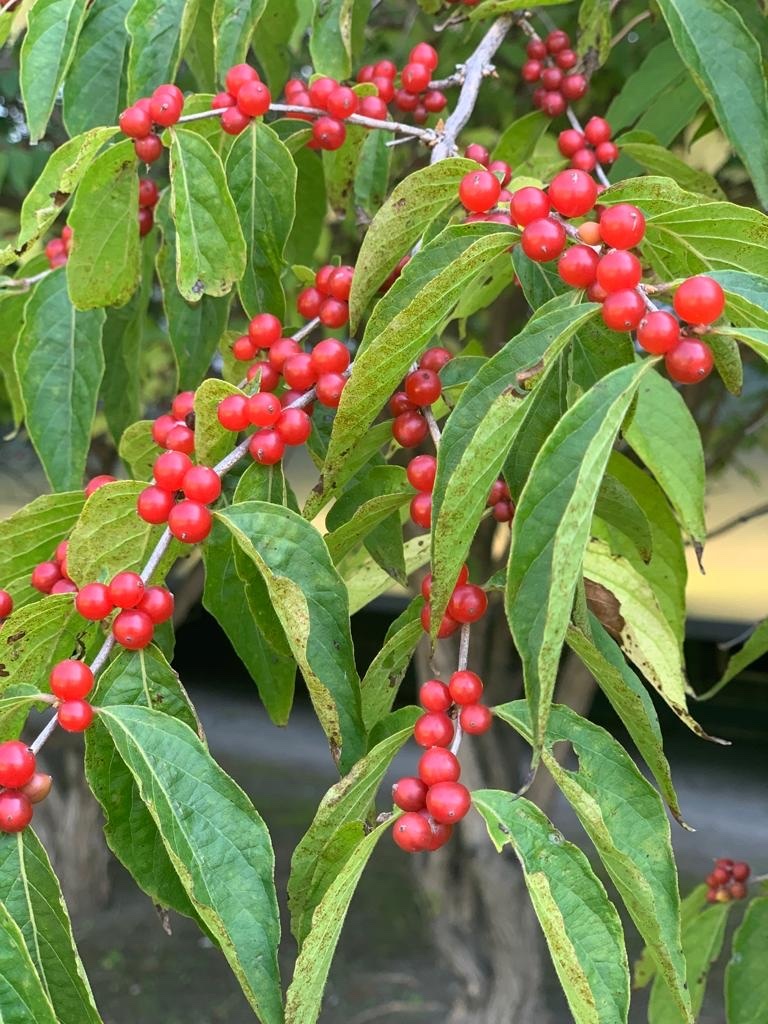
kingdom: Plantae
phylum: Tracheophyta
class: Magnoliopsida
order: Dipsacales
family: Caprifoliaceae
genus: Lonicera
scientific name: Lonicera maackii
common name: Amur honeysuckle
